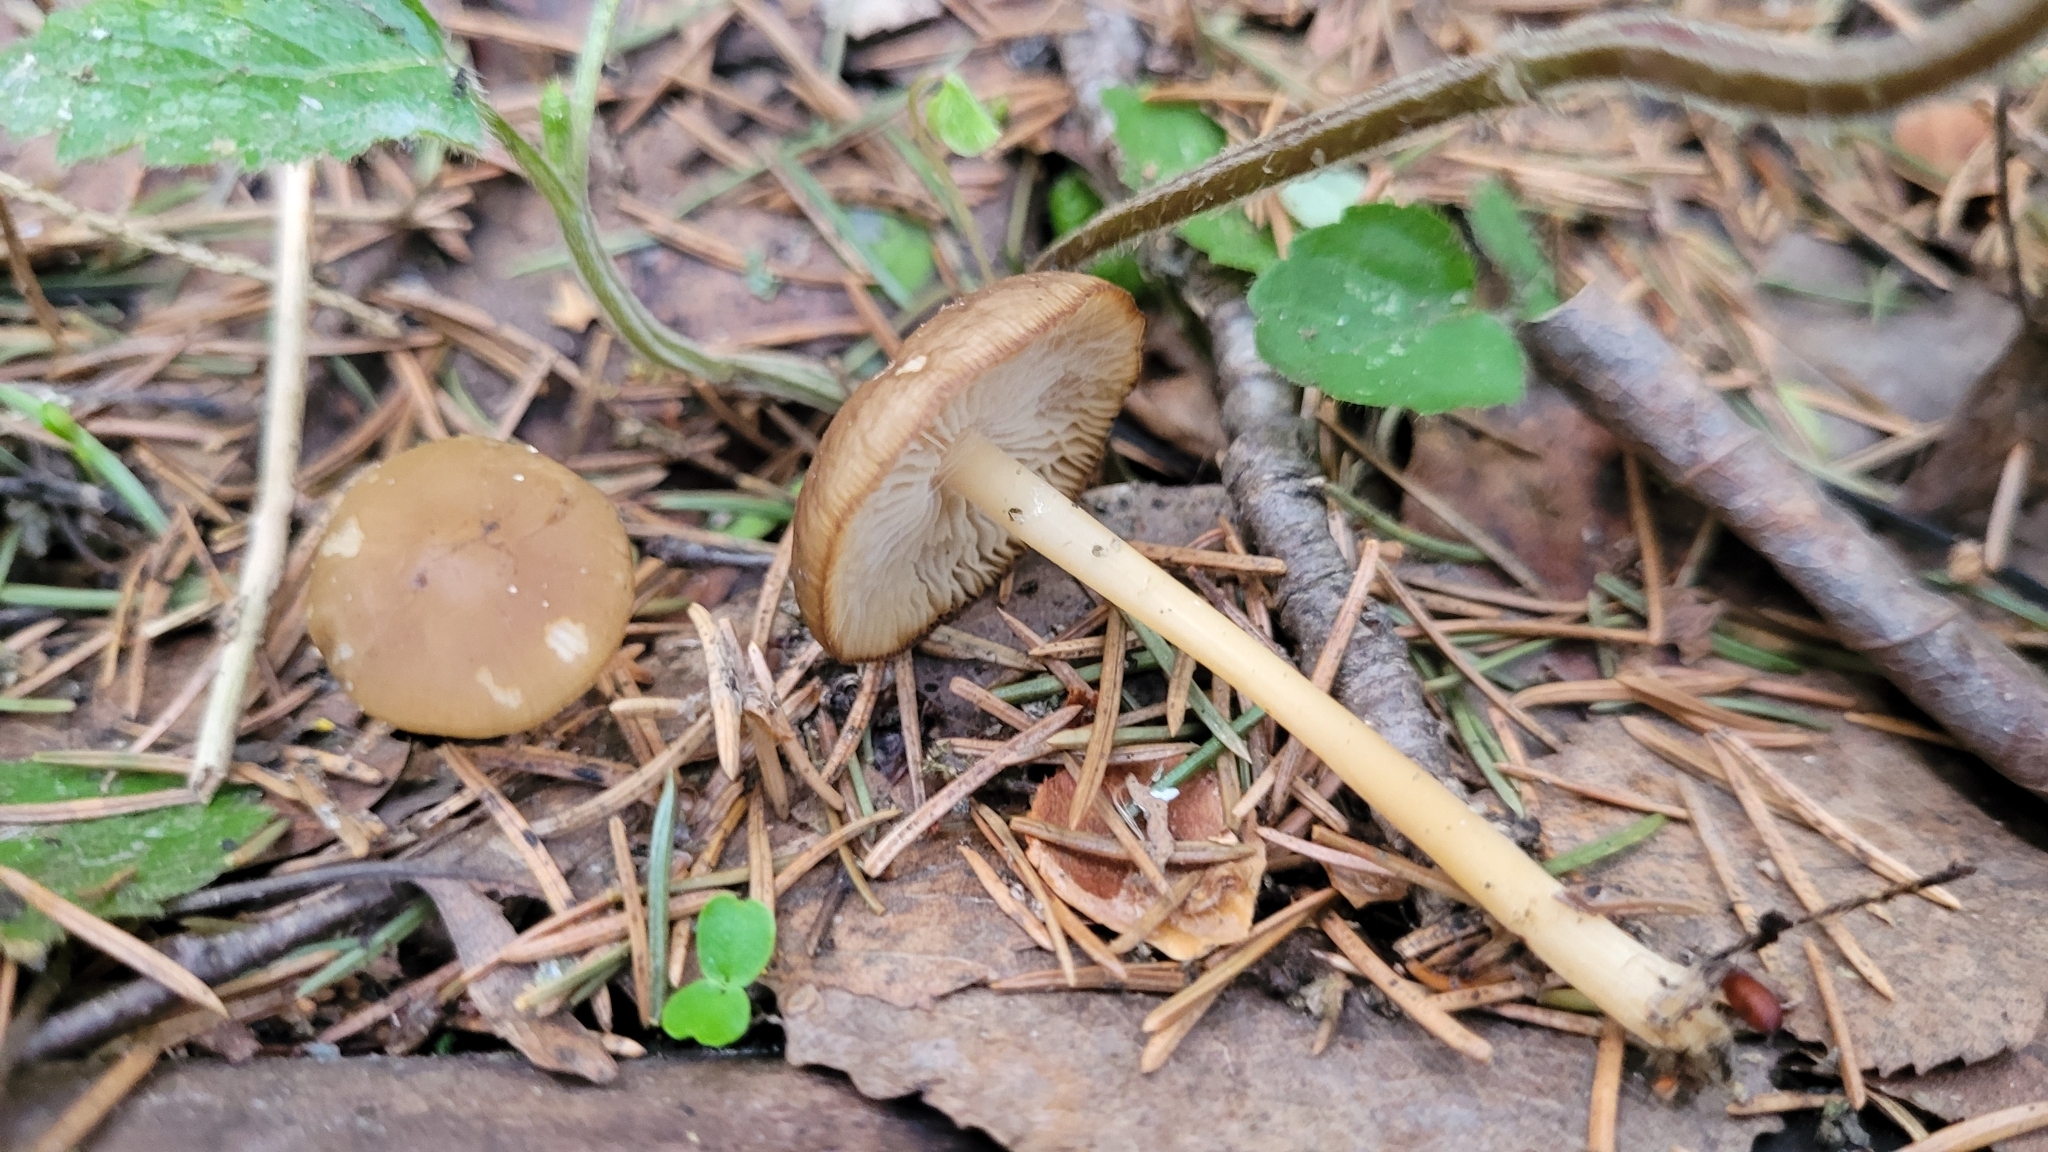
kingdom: Fungi
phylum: Basidiomycota
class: Agaricomycetes
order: Agaricales
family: Physalacriaceae
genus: Strobilurus
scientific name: Strobilurus esculentus
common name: Sprucecone cap
